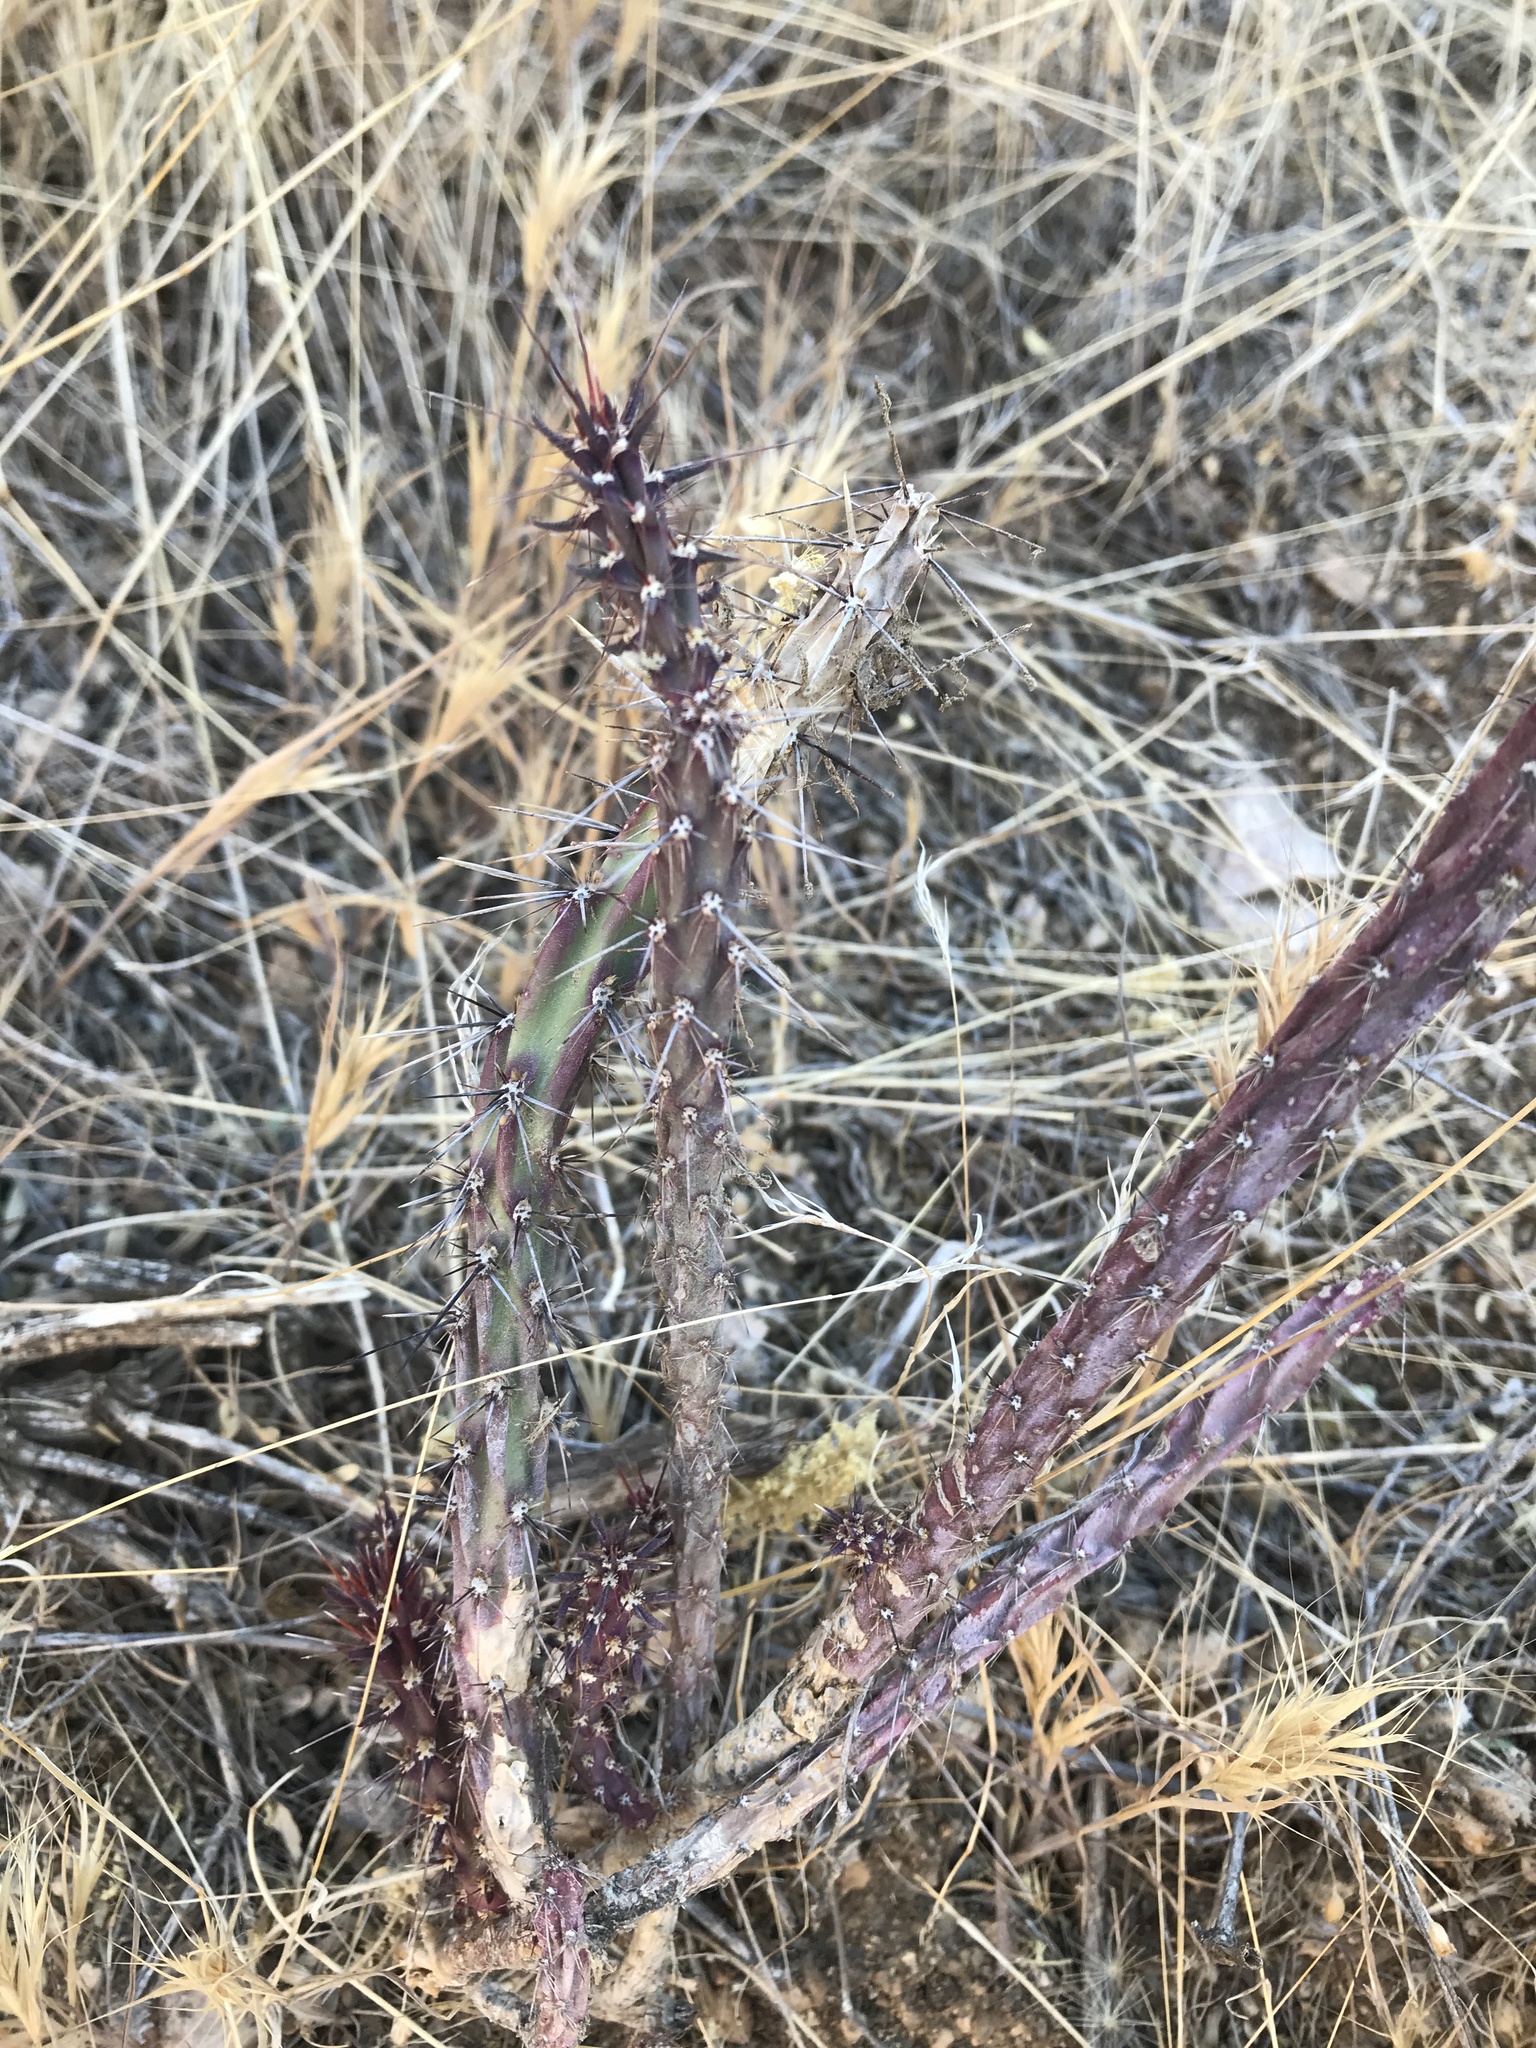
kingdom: Plantae
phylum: Tracheophyta
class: Magnoliopsida
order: Caryophyllales
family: Cactaceae
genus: Cylindropuntia
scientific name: Cylindropuntia acanthocarpa
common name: Buckhorn cholla
